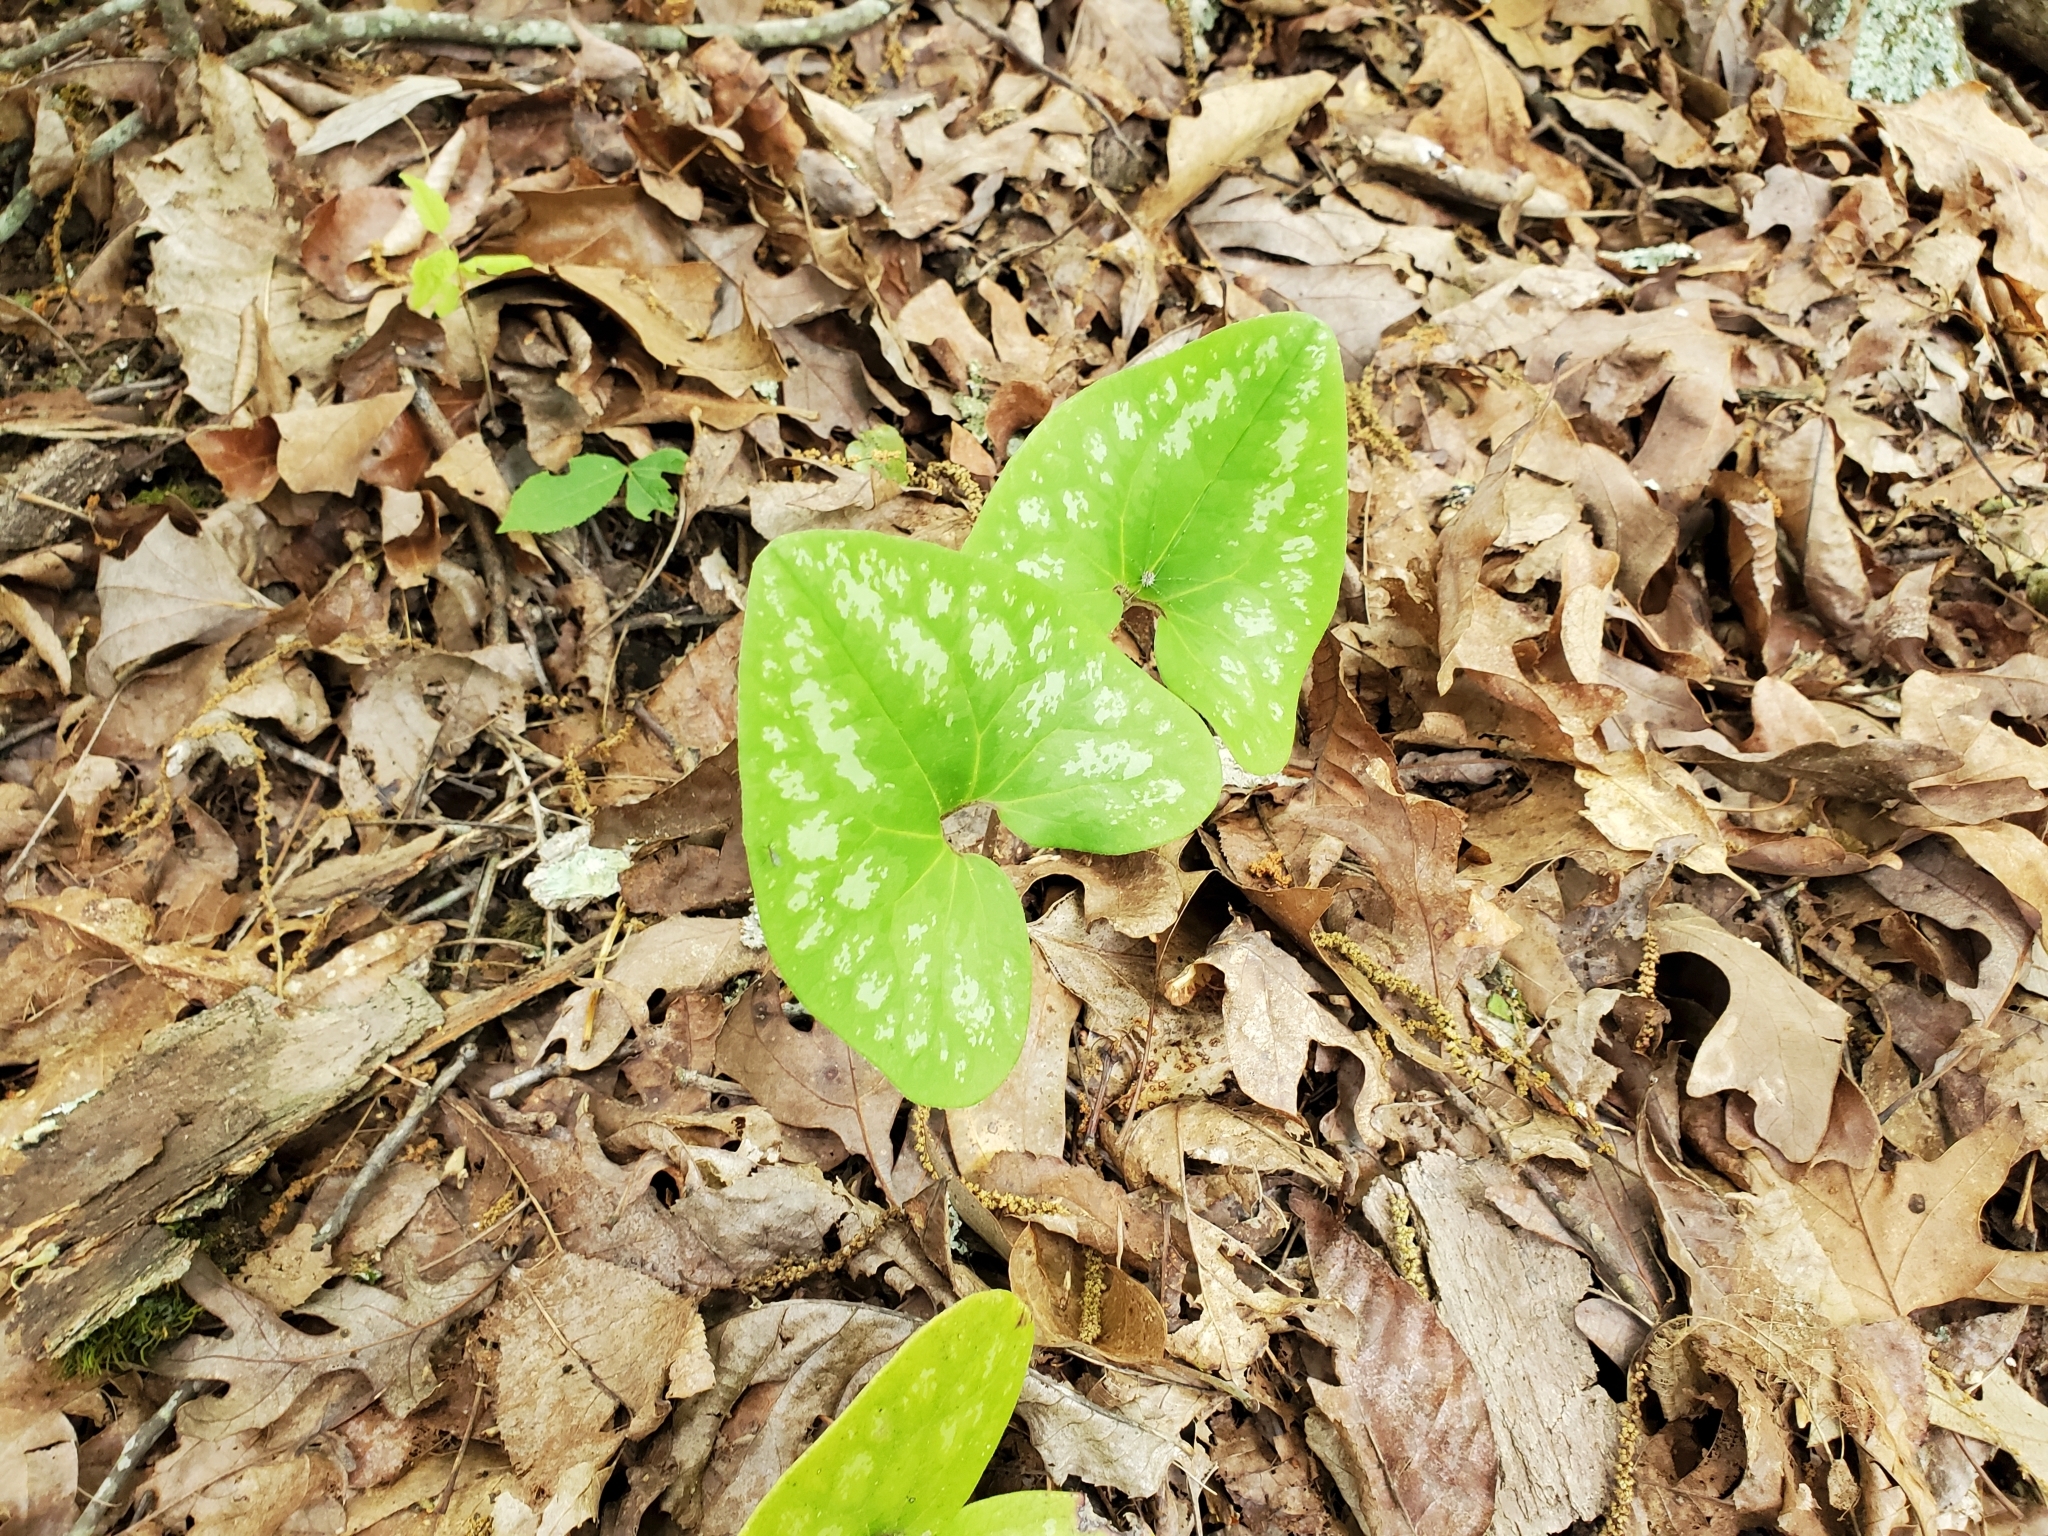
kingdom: Plantae
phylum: Tracheophyta
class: Magnoliopsida
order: Piperales
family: Aristolochiaceae
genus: Hexastylis
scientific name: Hexastylis arifolia
